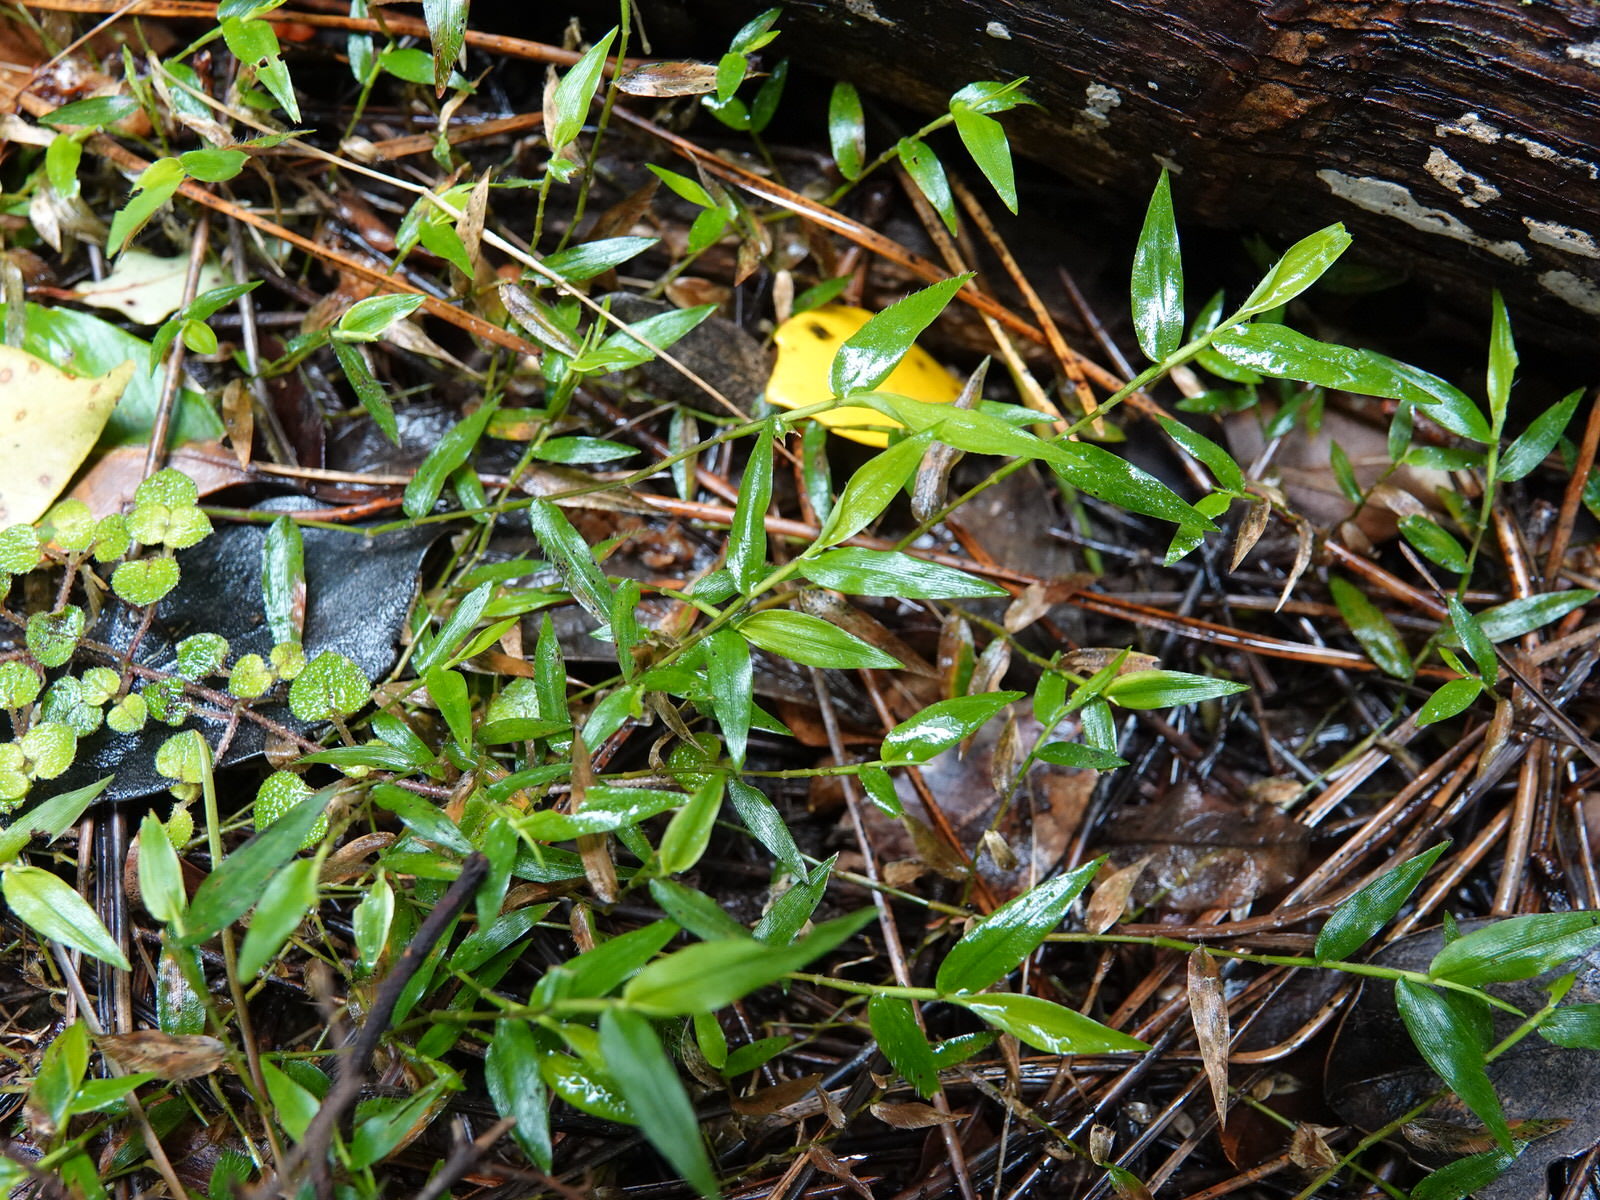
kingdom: Plantae
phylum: Tracheophyta
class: Liliopsida
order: Poales
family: Poaceae
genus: Oplismenus
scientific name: Oplismenus hirtellus
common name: Basketgrass
